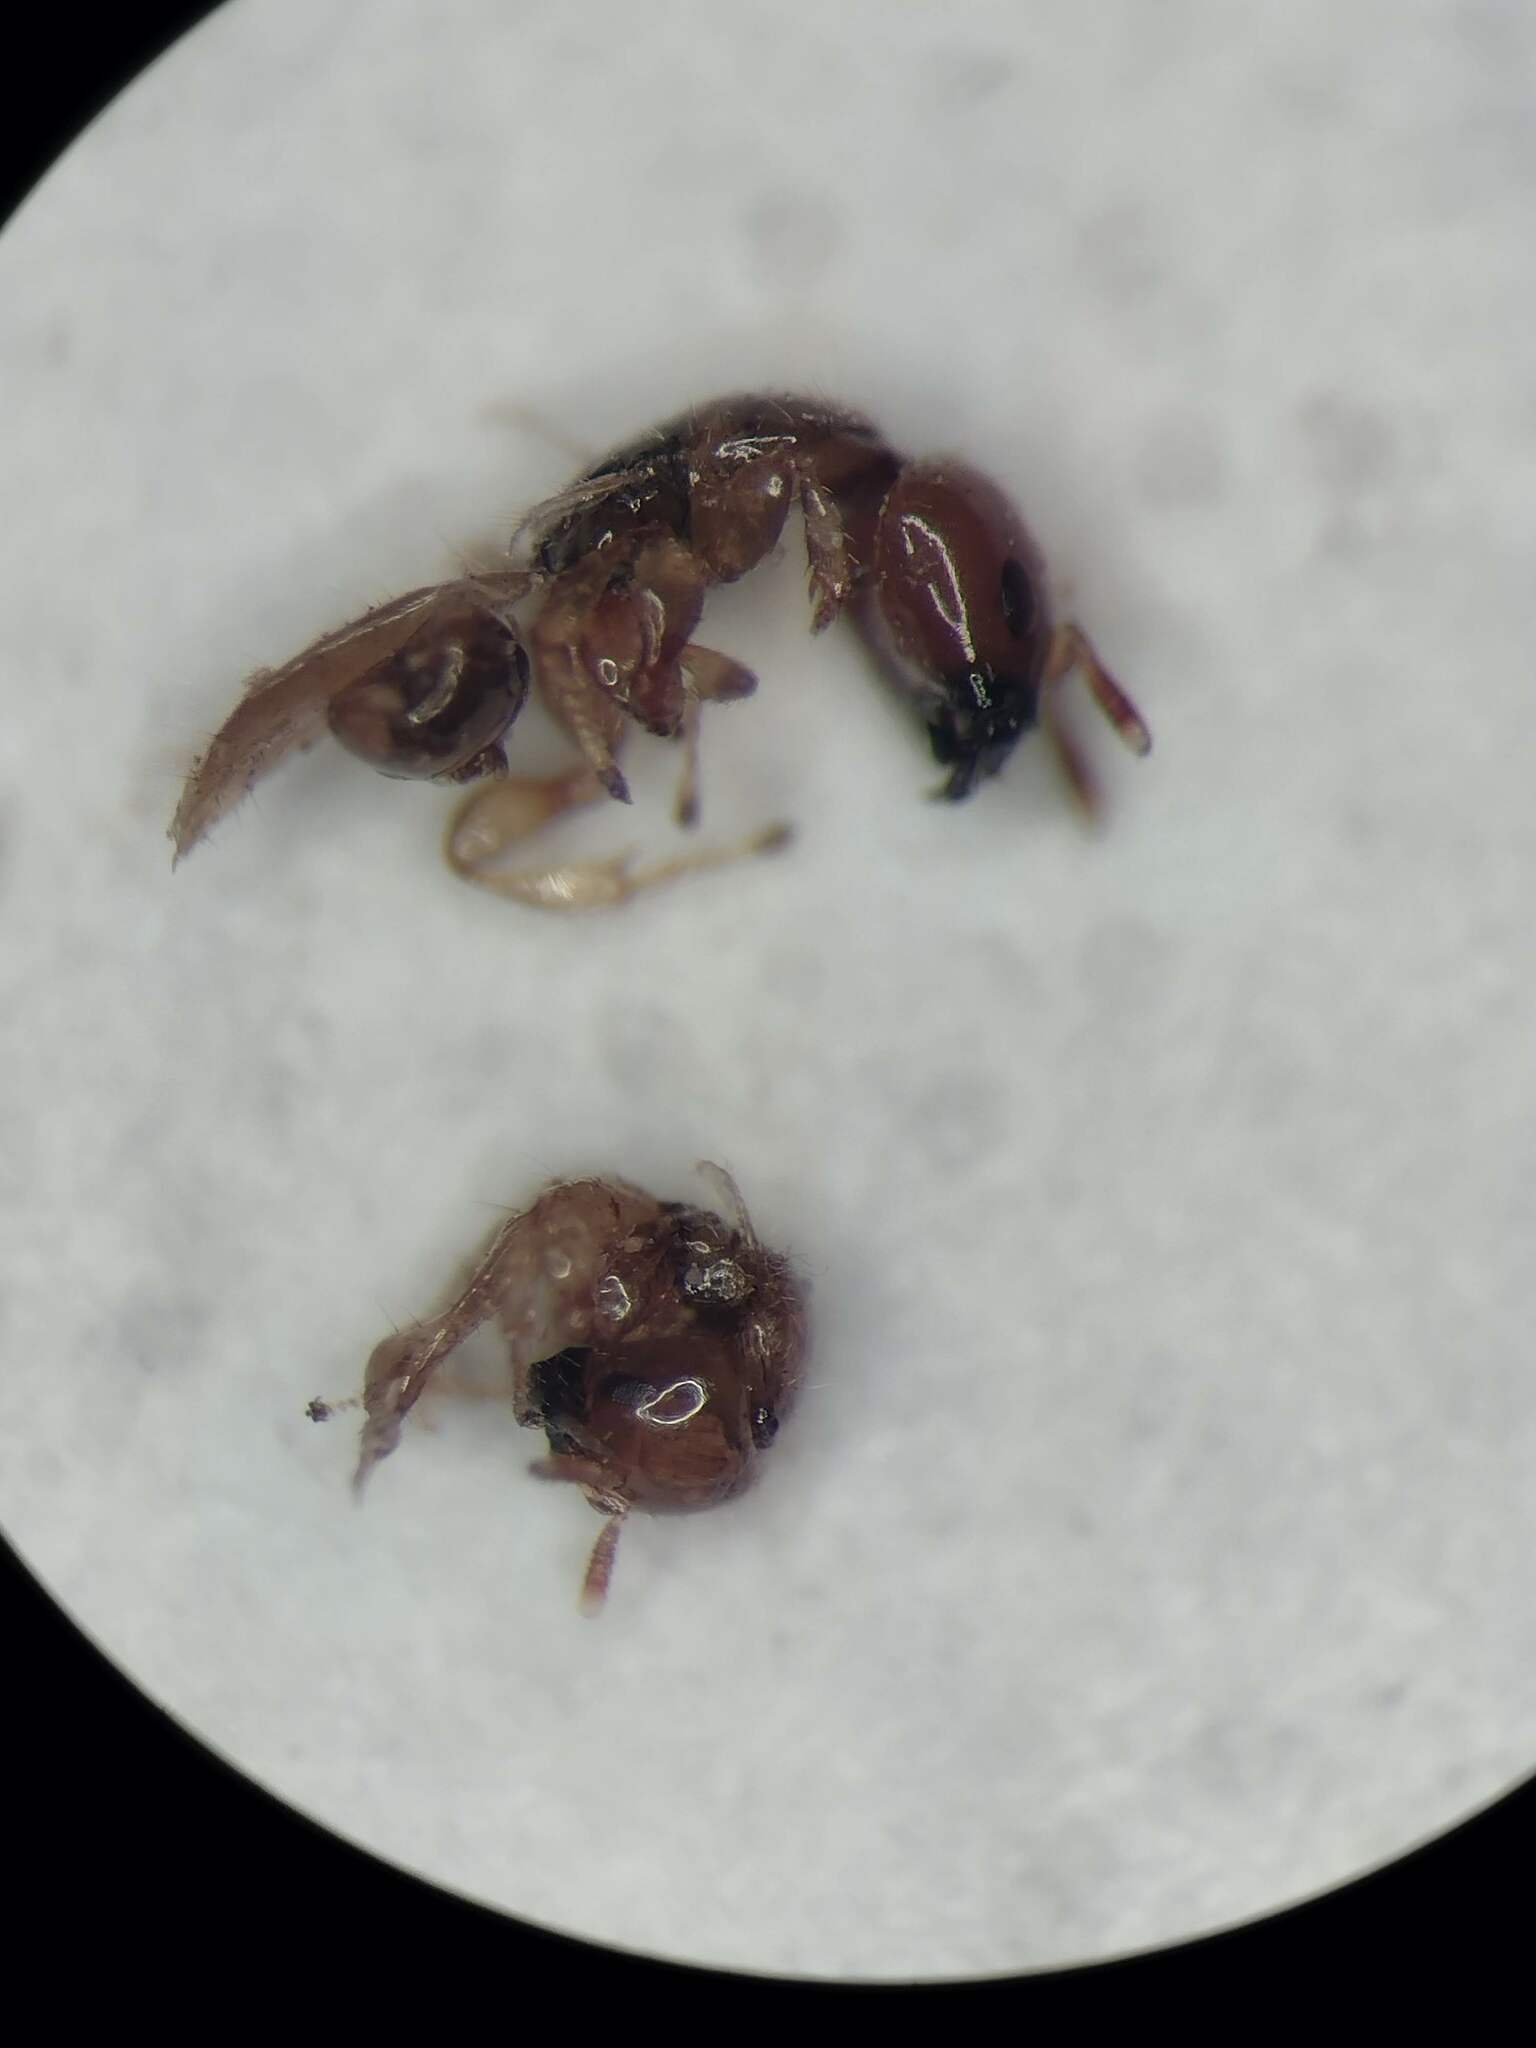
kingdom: Animalia
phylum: Arthropoda
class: Insecta
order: Hymenoptera
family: Agaonidae
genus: Philotrypesis
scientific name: Philotrypesis emeryi
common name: Fig wasp
